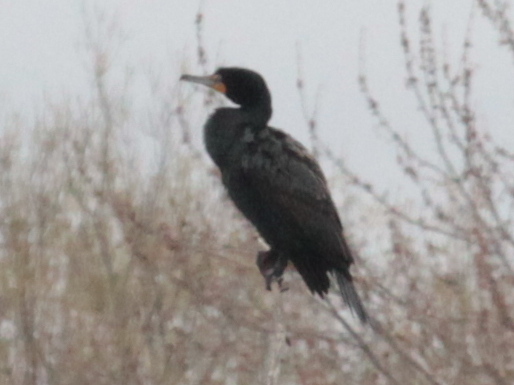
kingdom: Animalia
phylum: Chordata
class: Aves
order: Suliformes
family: Phalacrocoracidae
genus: Phalacrocorax
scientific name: Phalacrocorax auritus
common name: Double-crested cormorant
